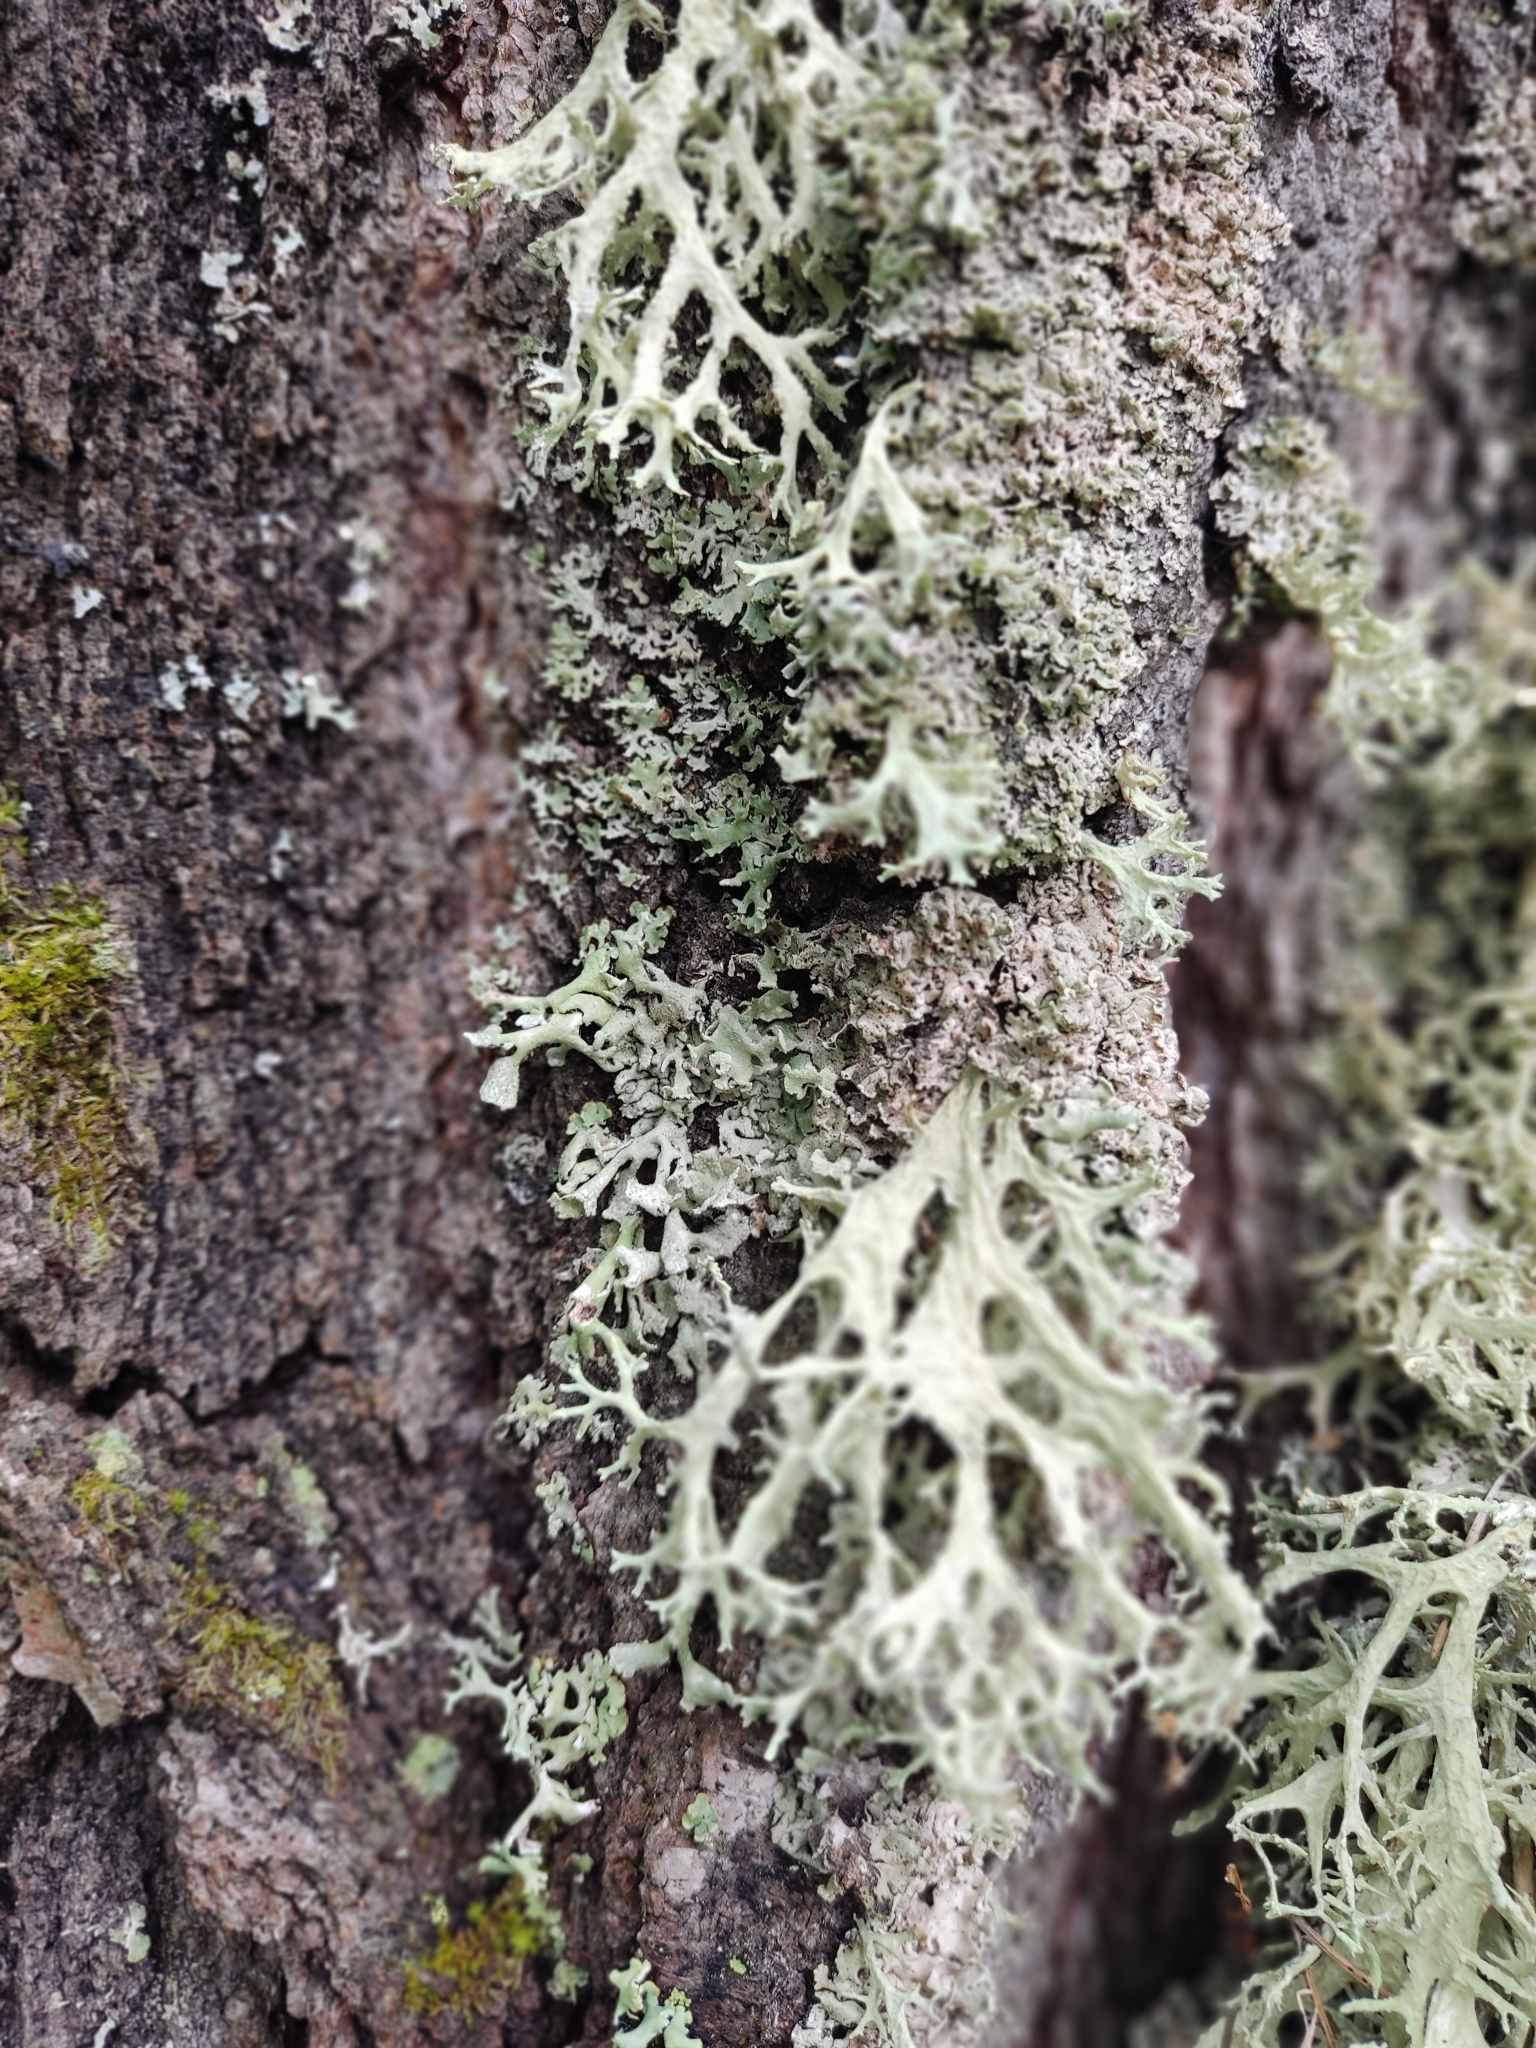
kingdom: Fungi
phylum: Ascomycota
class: Lecanoromycetes
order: Lecanorales
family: Parmeliaceae
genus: Evernia
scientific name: Evernia prunastri
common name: Oak moss
